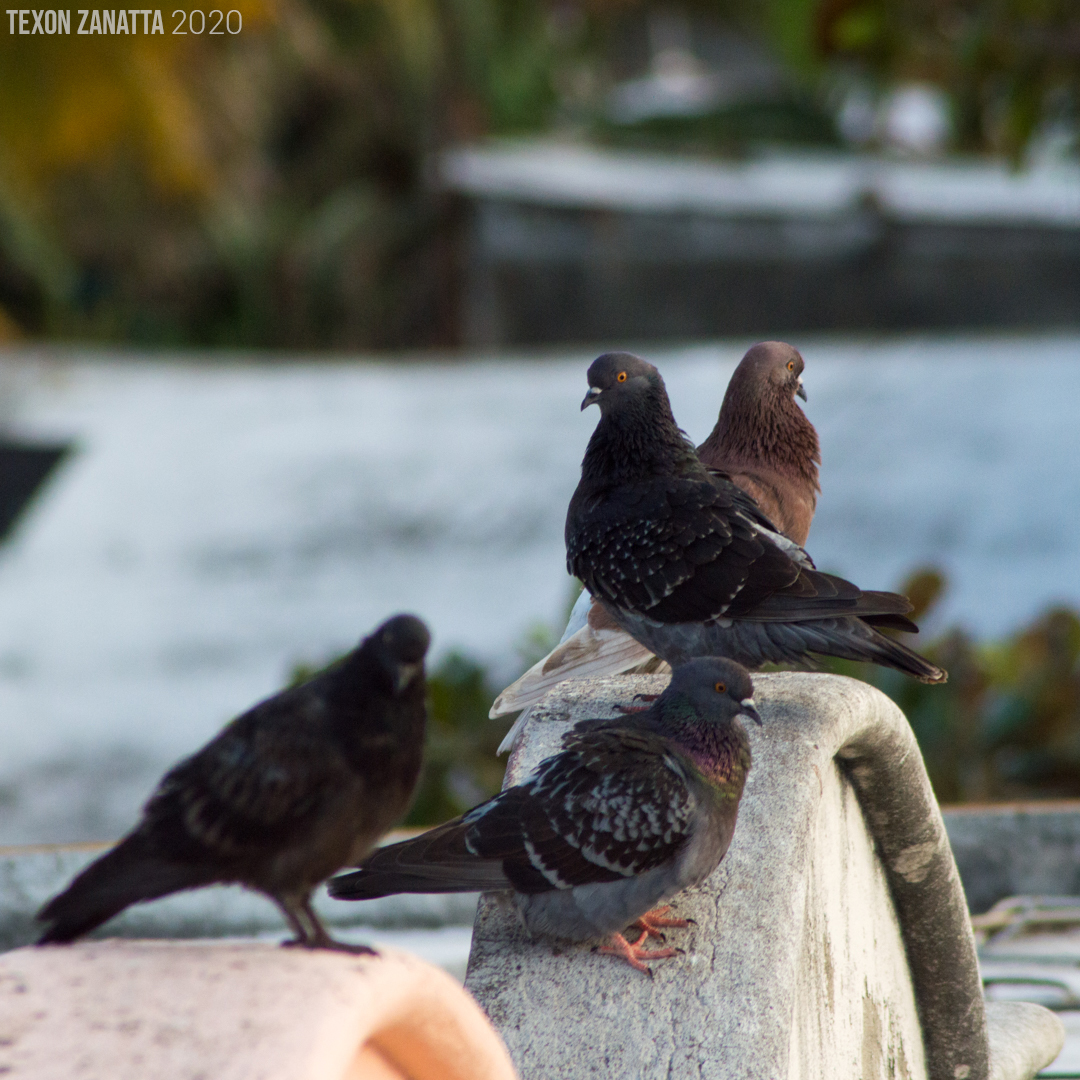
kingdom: Animalia
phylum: Chordata
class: Aves
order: Columbiformes
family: Columbidae
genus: Columba
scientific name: Columba livia
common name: Rock pigeon
